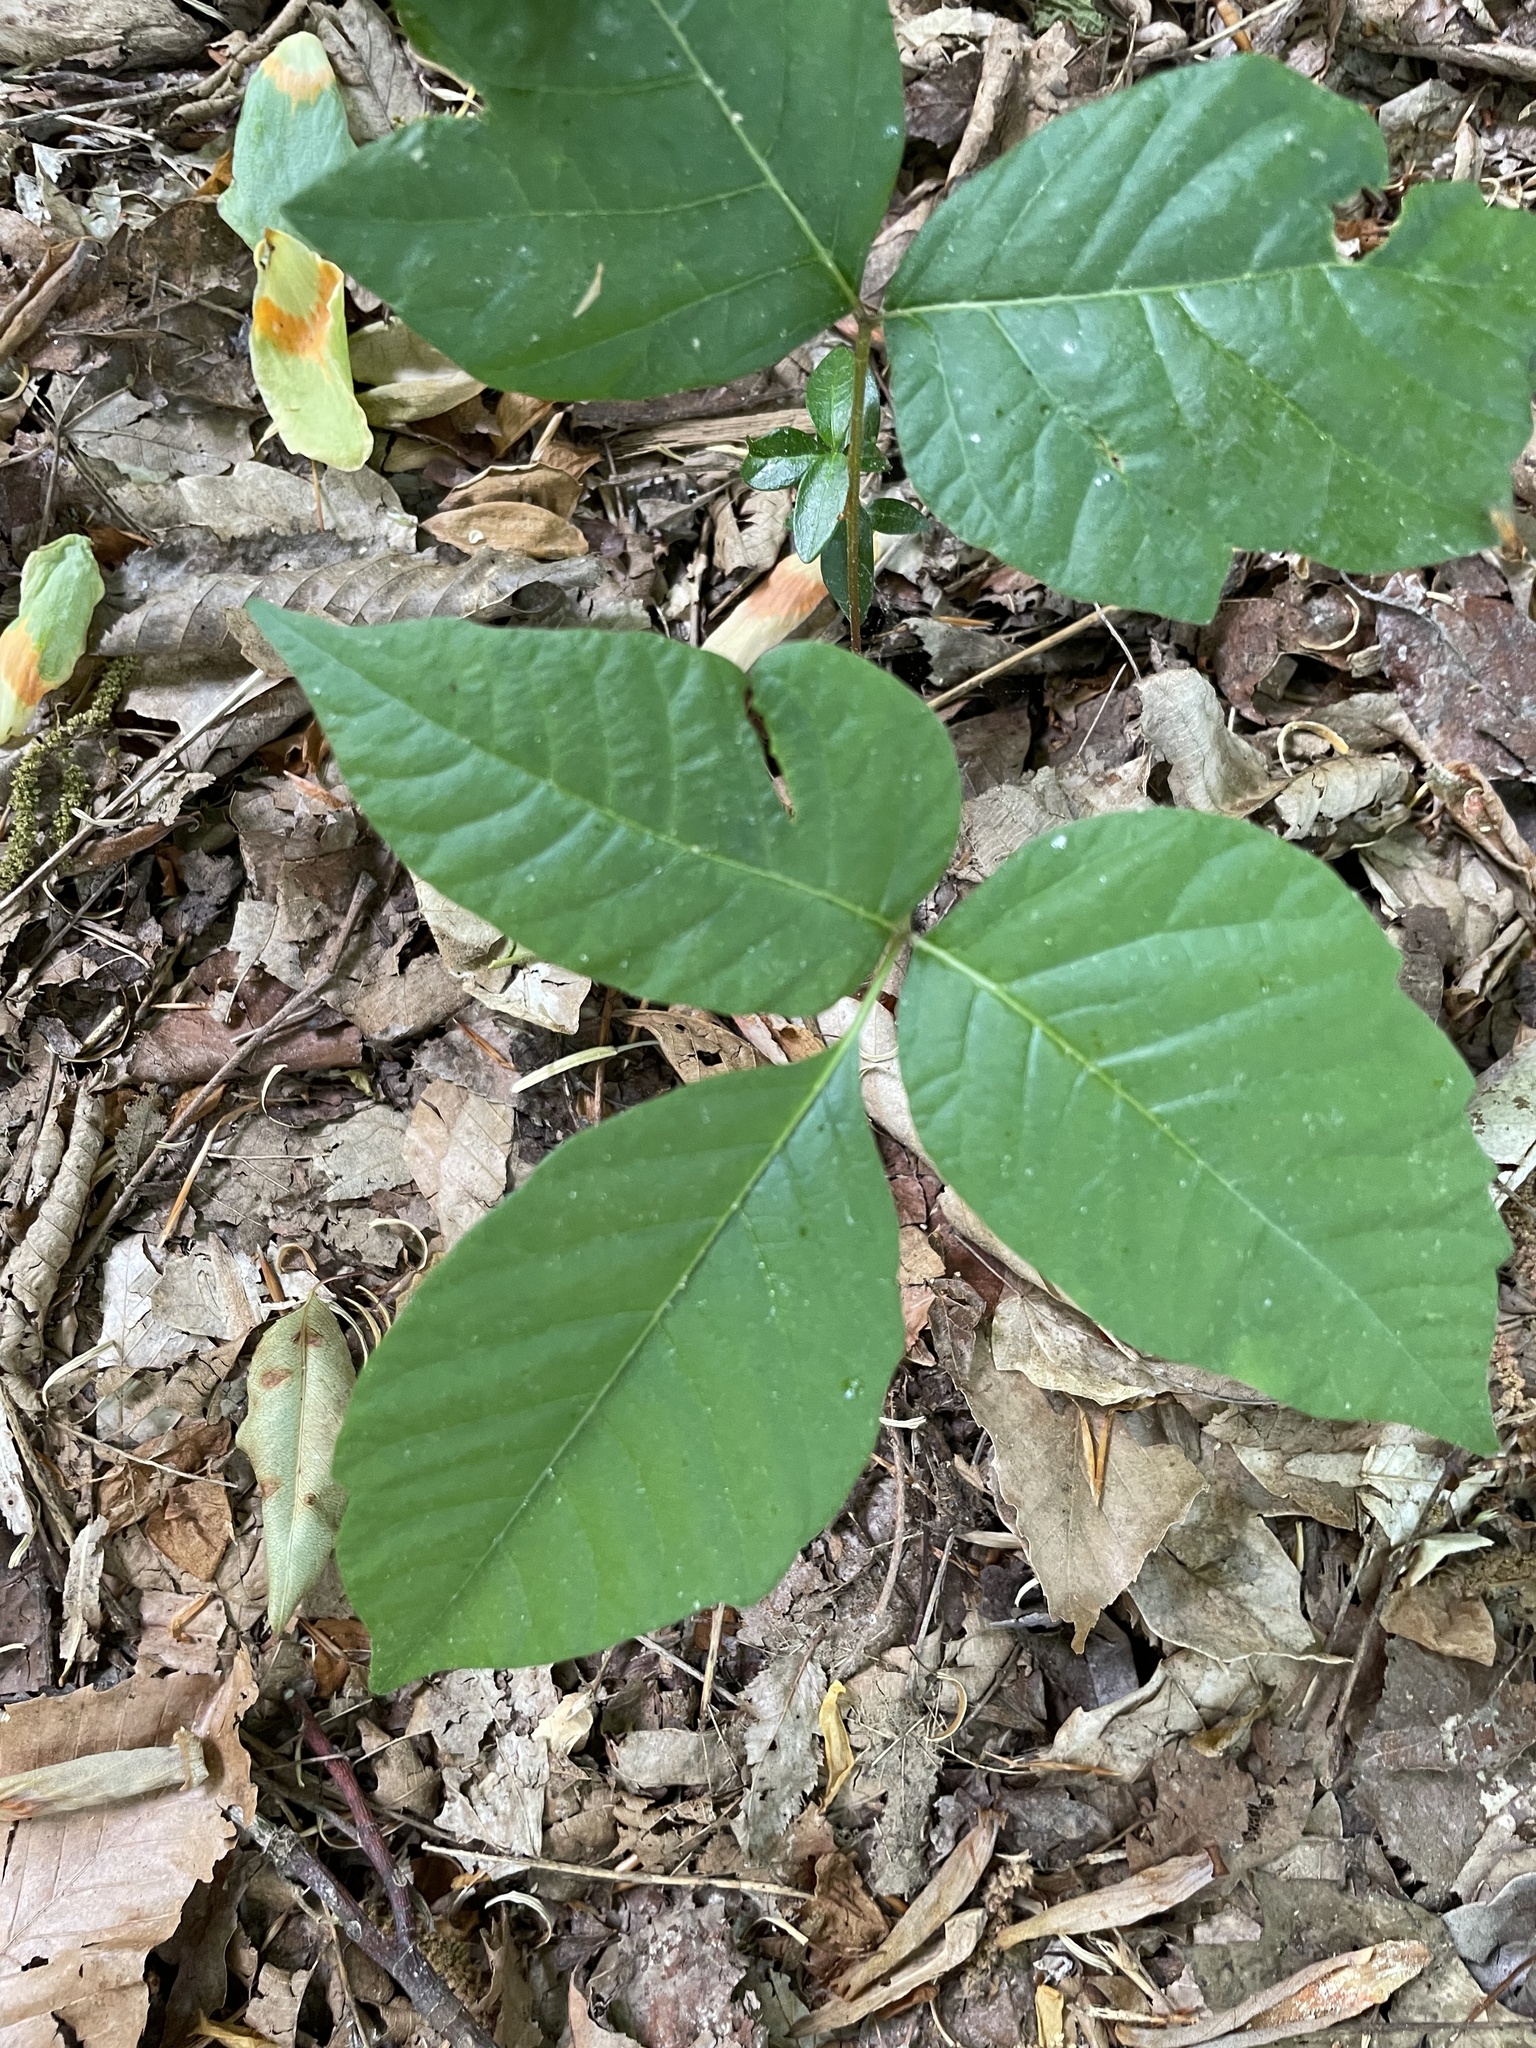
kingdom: Plantae
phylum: Tracheophyta
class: Magnoliopsida
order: Sapindales
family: Anacardiaceae
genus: Toxicodendron
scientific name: Toxicodendron radicans
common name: Poison ivy
